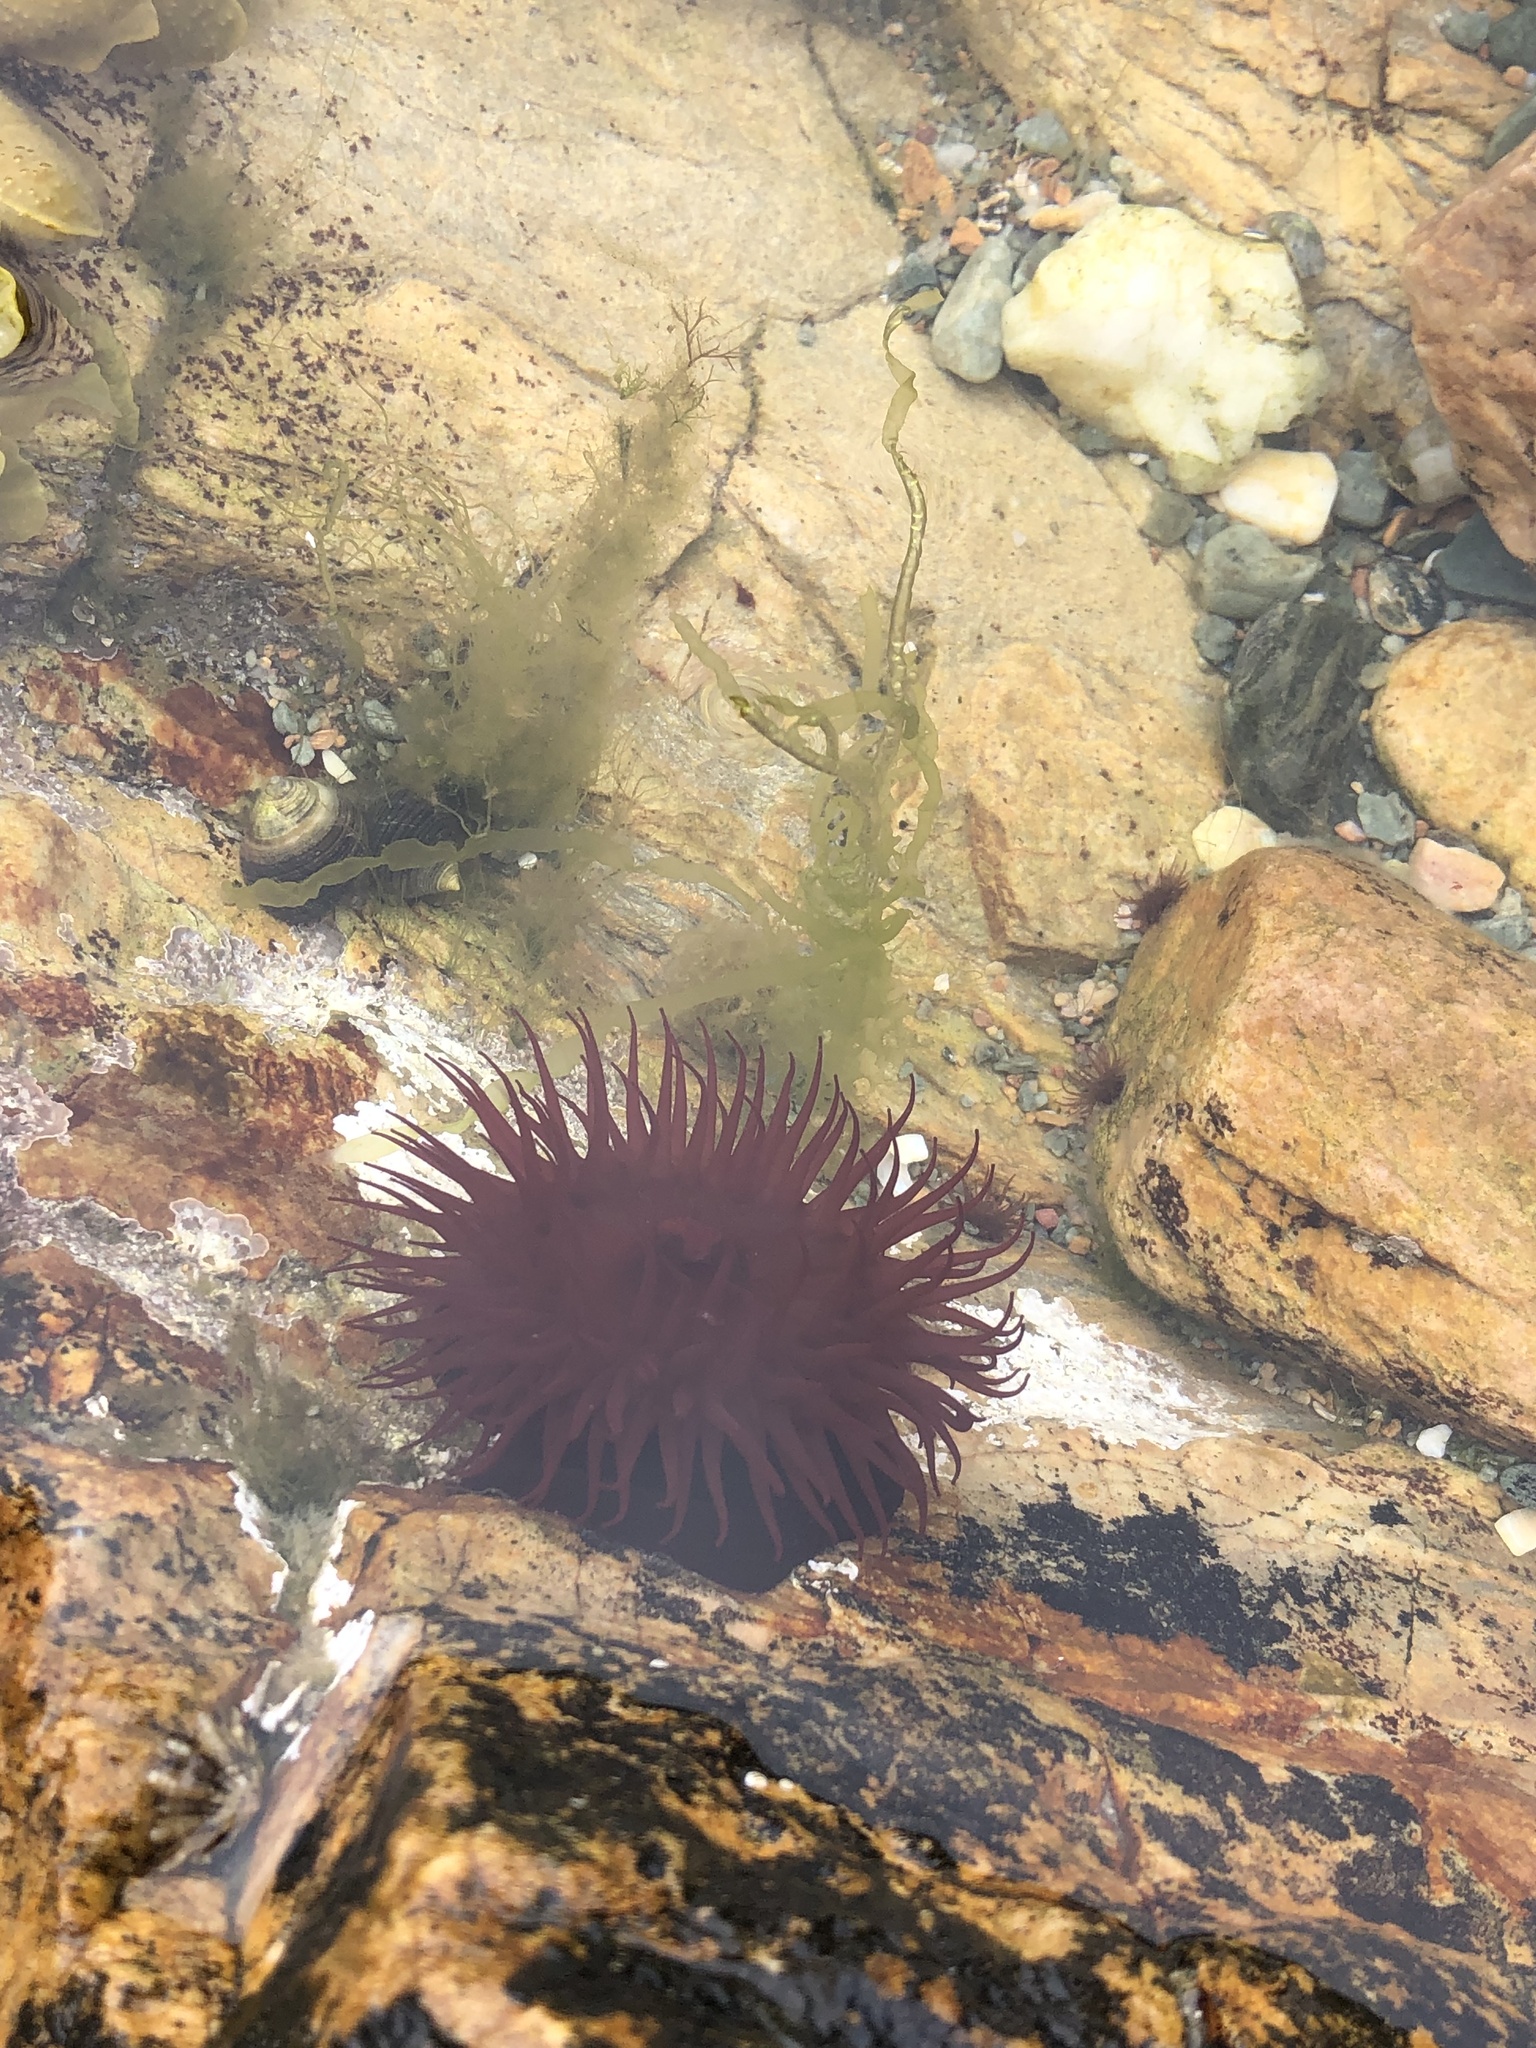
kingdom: Animalia
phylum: Cnidaria
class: Anthozoa
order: Actiniaria
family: Actiniidae
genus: Actinia
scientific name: Actinia equina
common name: Beadlet anemone
